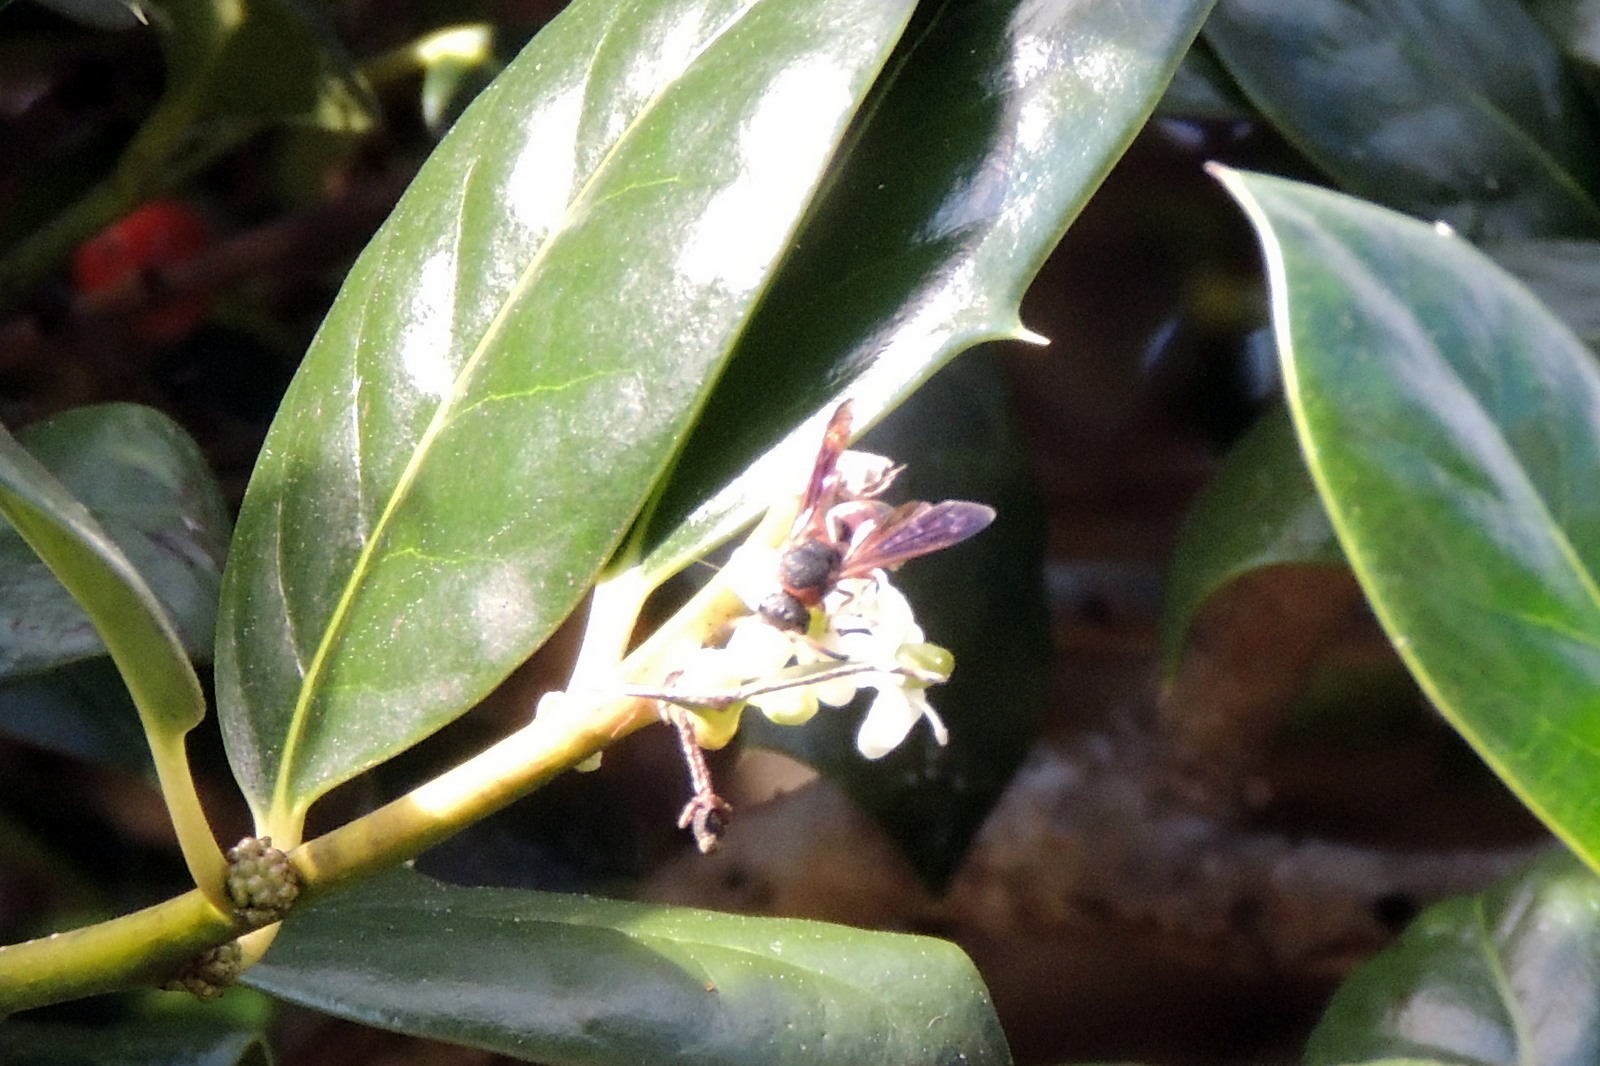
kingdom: Animalia
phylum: Arthropoda
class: Insecta
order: Hymenoptera
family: Eumenidae
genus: Pachodynerus
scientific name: Pachodynerus erynnis
